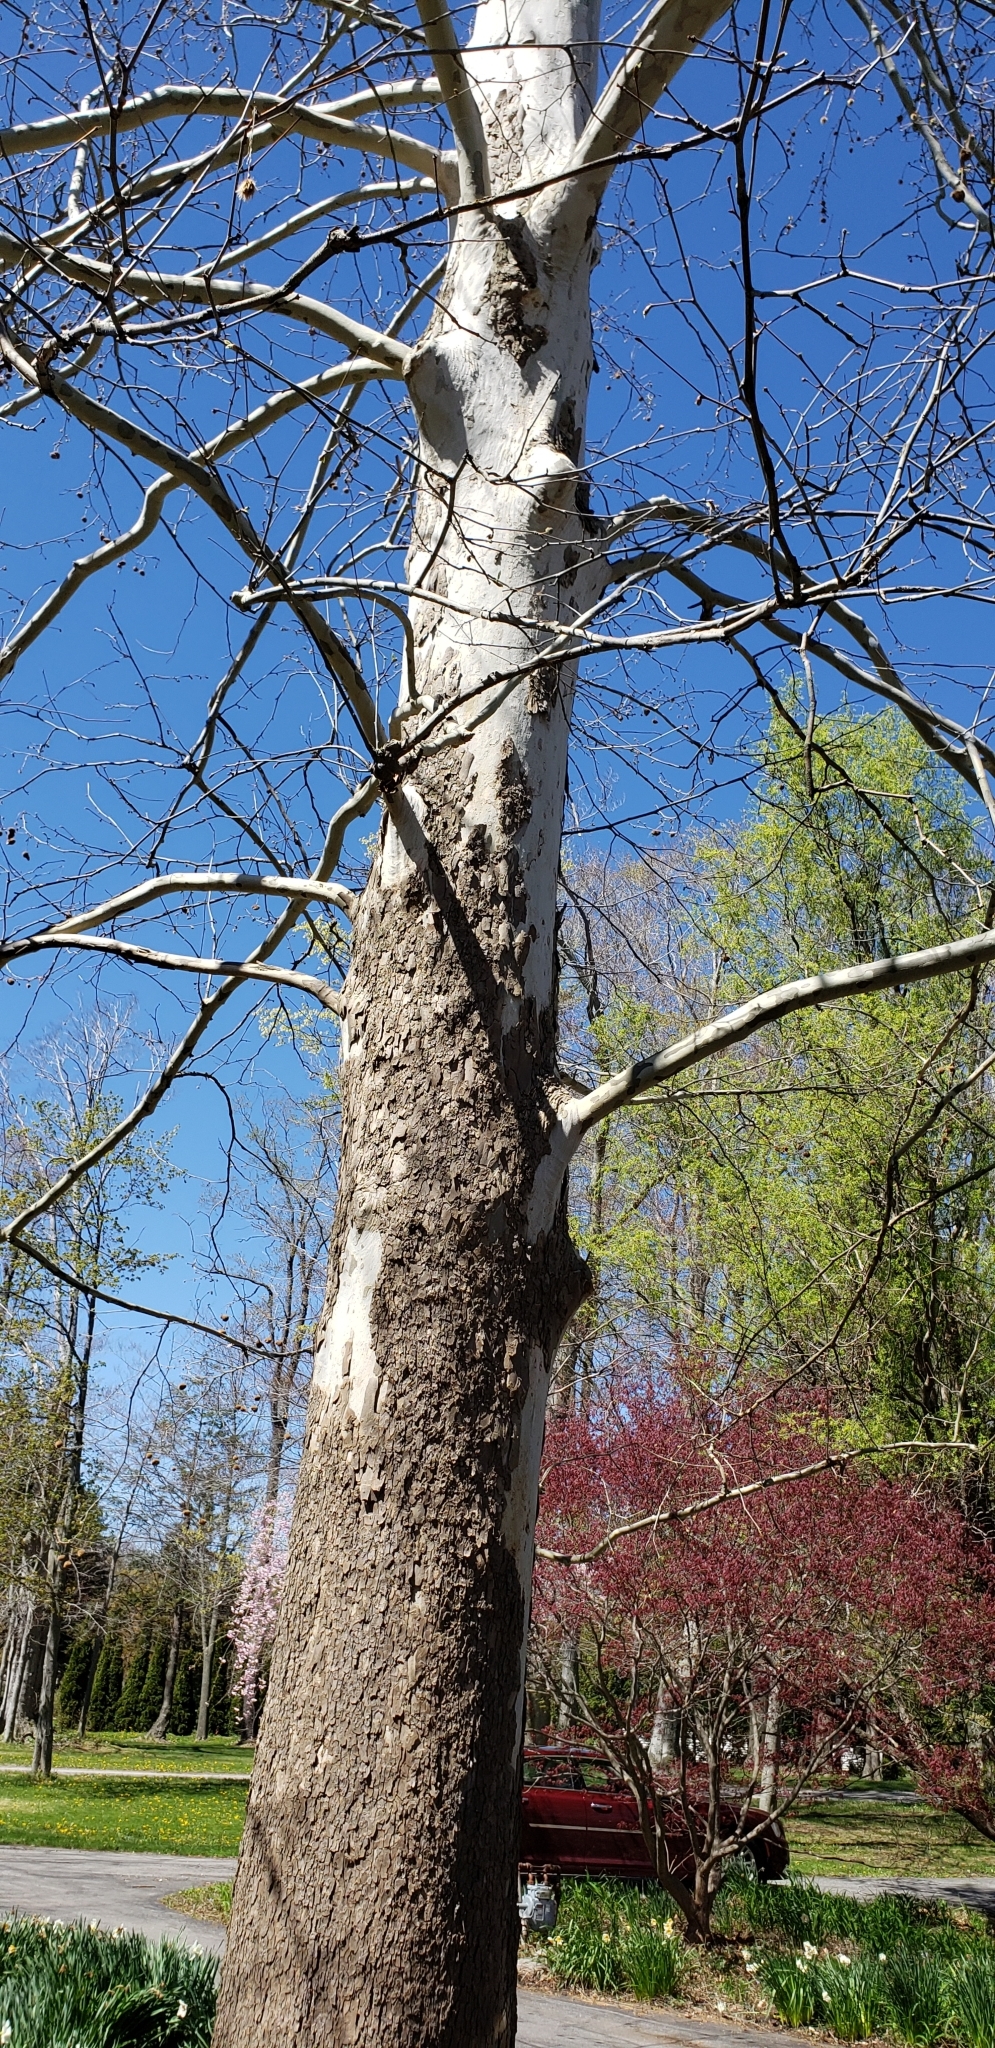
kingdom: Plantae
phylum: Tracheophyta
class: Magnoliopsida
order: Proteales
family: Platanaceae
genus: Platanus
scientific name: Platanus occidentalis
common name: American sycamore
